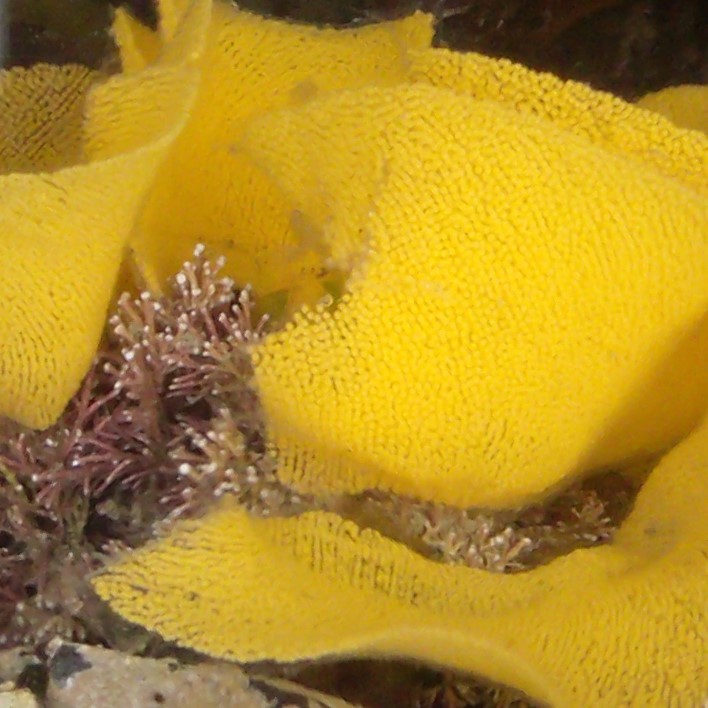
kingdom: Animalia
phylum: Mollusca
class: Gastropoda
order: Nudibranchia
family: Dorididae
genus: Doris
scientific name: Doris wellingtonensis
